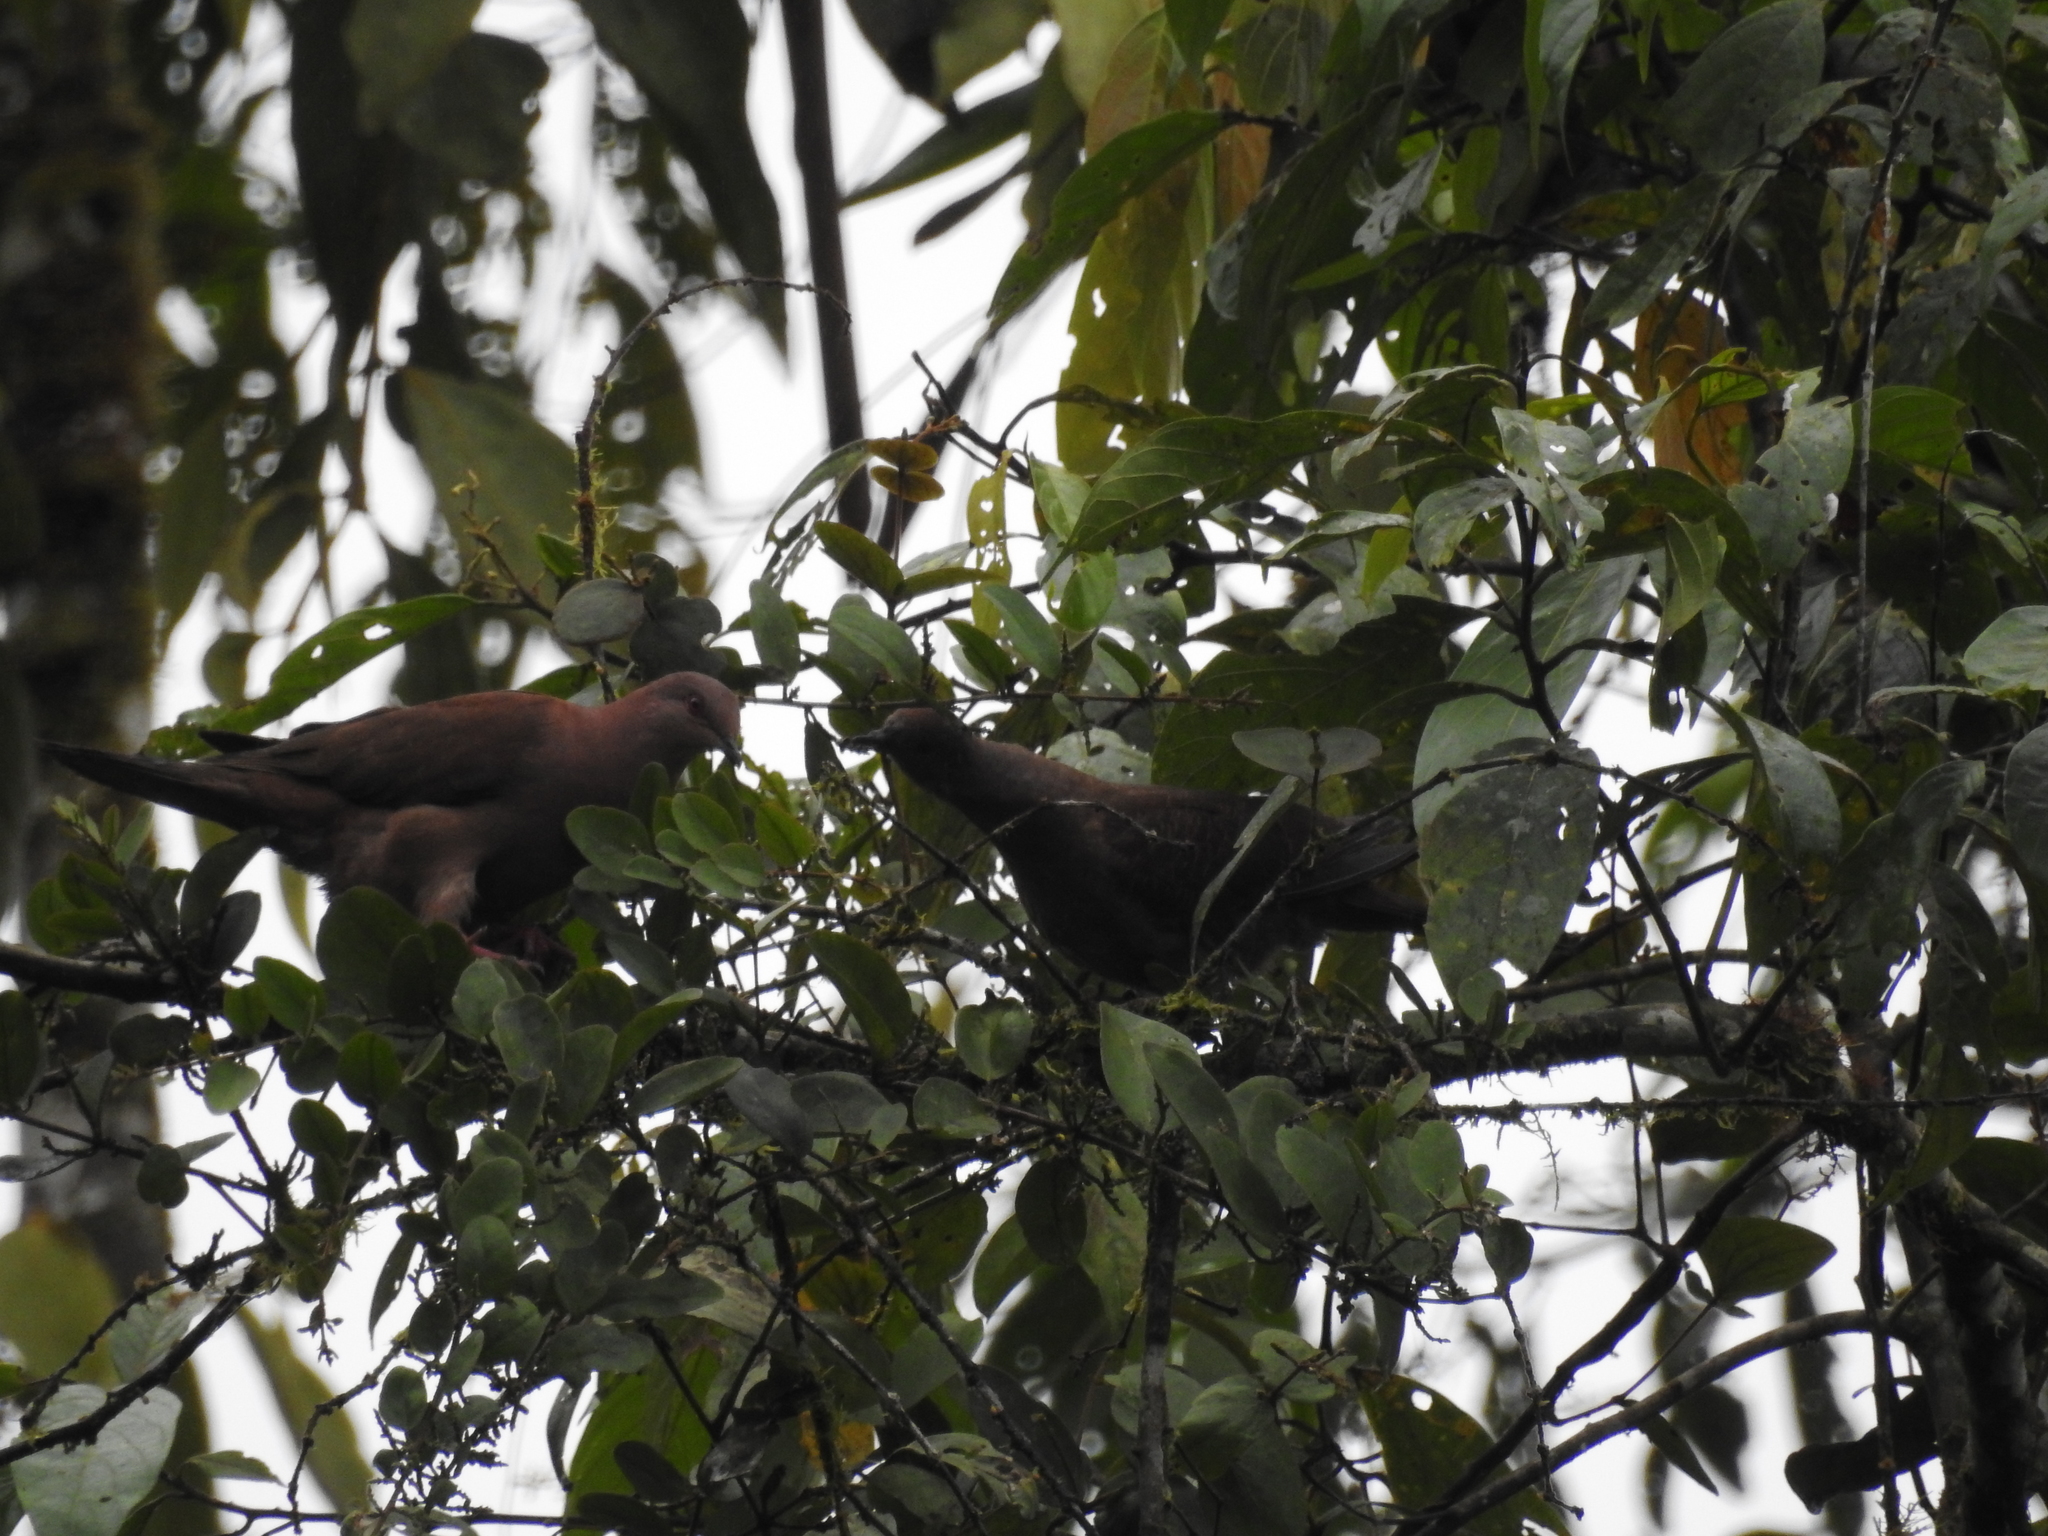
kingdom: Animalia
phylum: Chordata
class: Aves
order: Columbiformes
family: Columbidae
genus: Patagioenas
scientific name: Patagioenas subvinacea
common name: Ruddy pigeon
